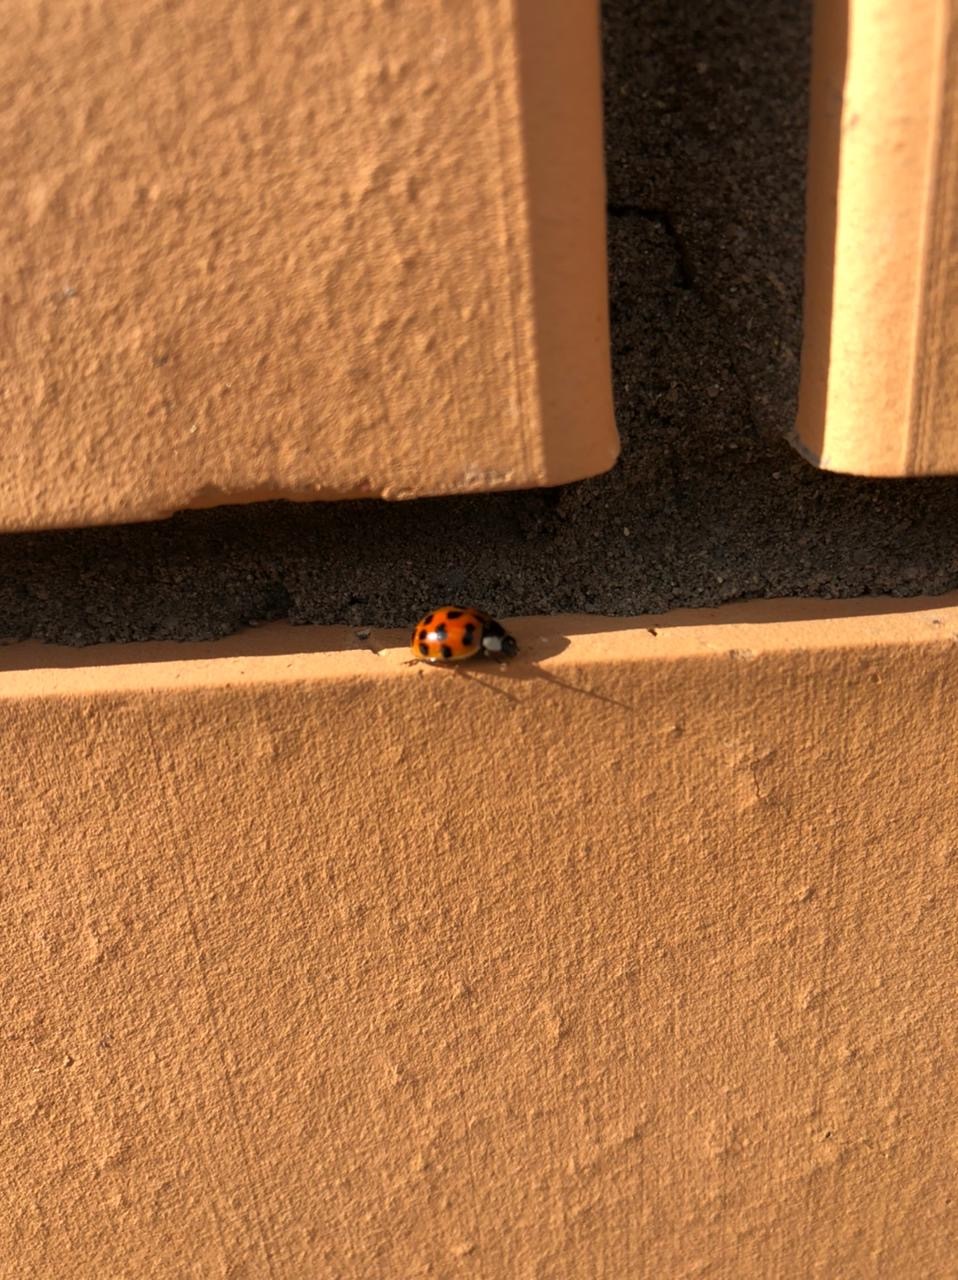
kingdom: Animalia
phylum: Arthropoda
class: Insecta
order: Coleoptera
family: Coccinellidae
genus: Harmonia
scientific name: Harmonia axyridis
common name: Harlequin ladybird
